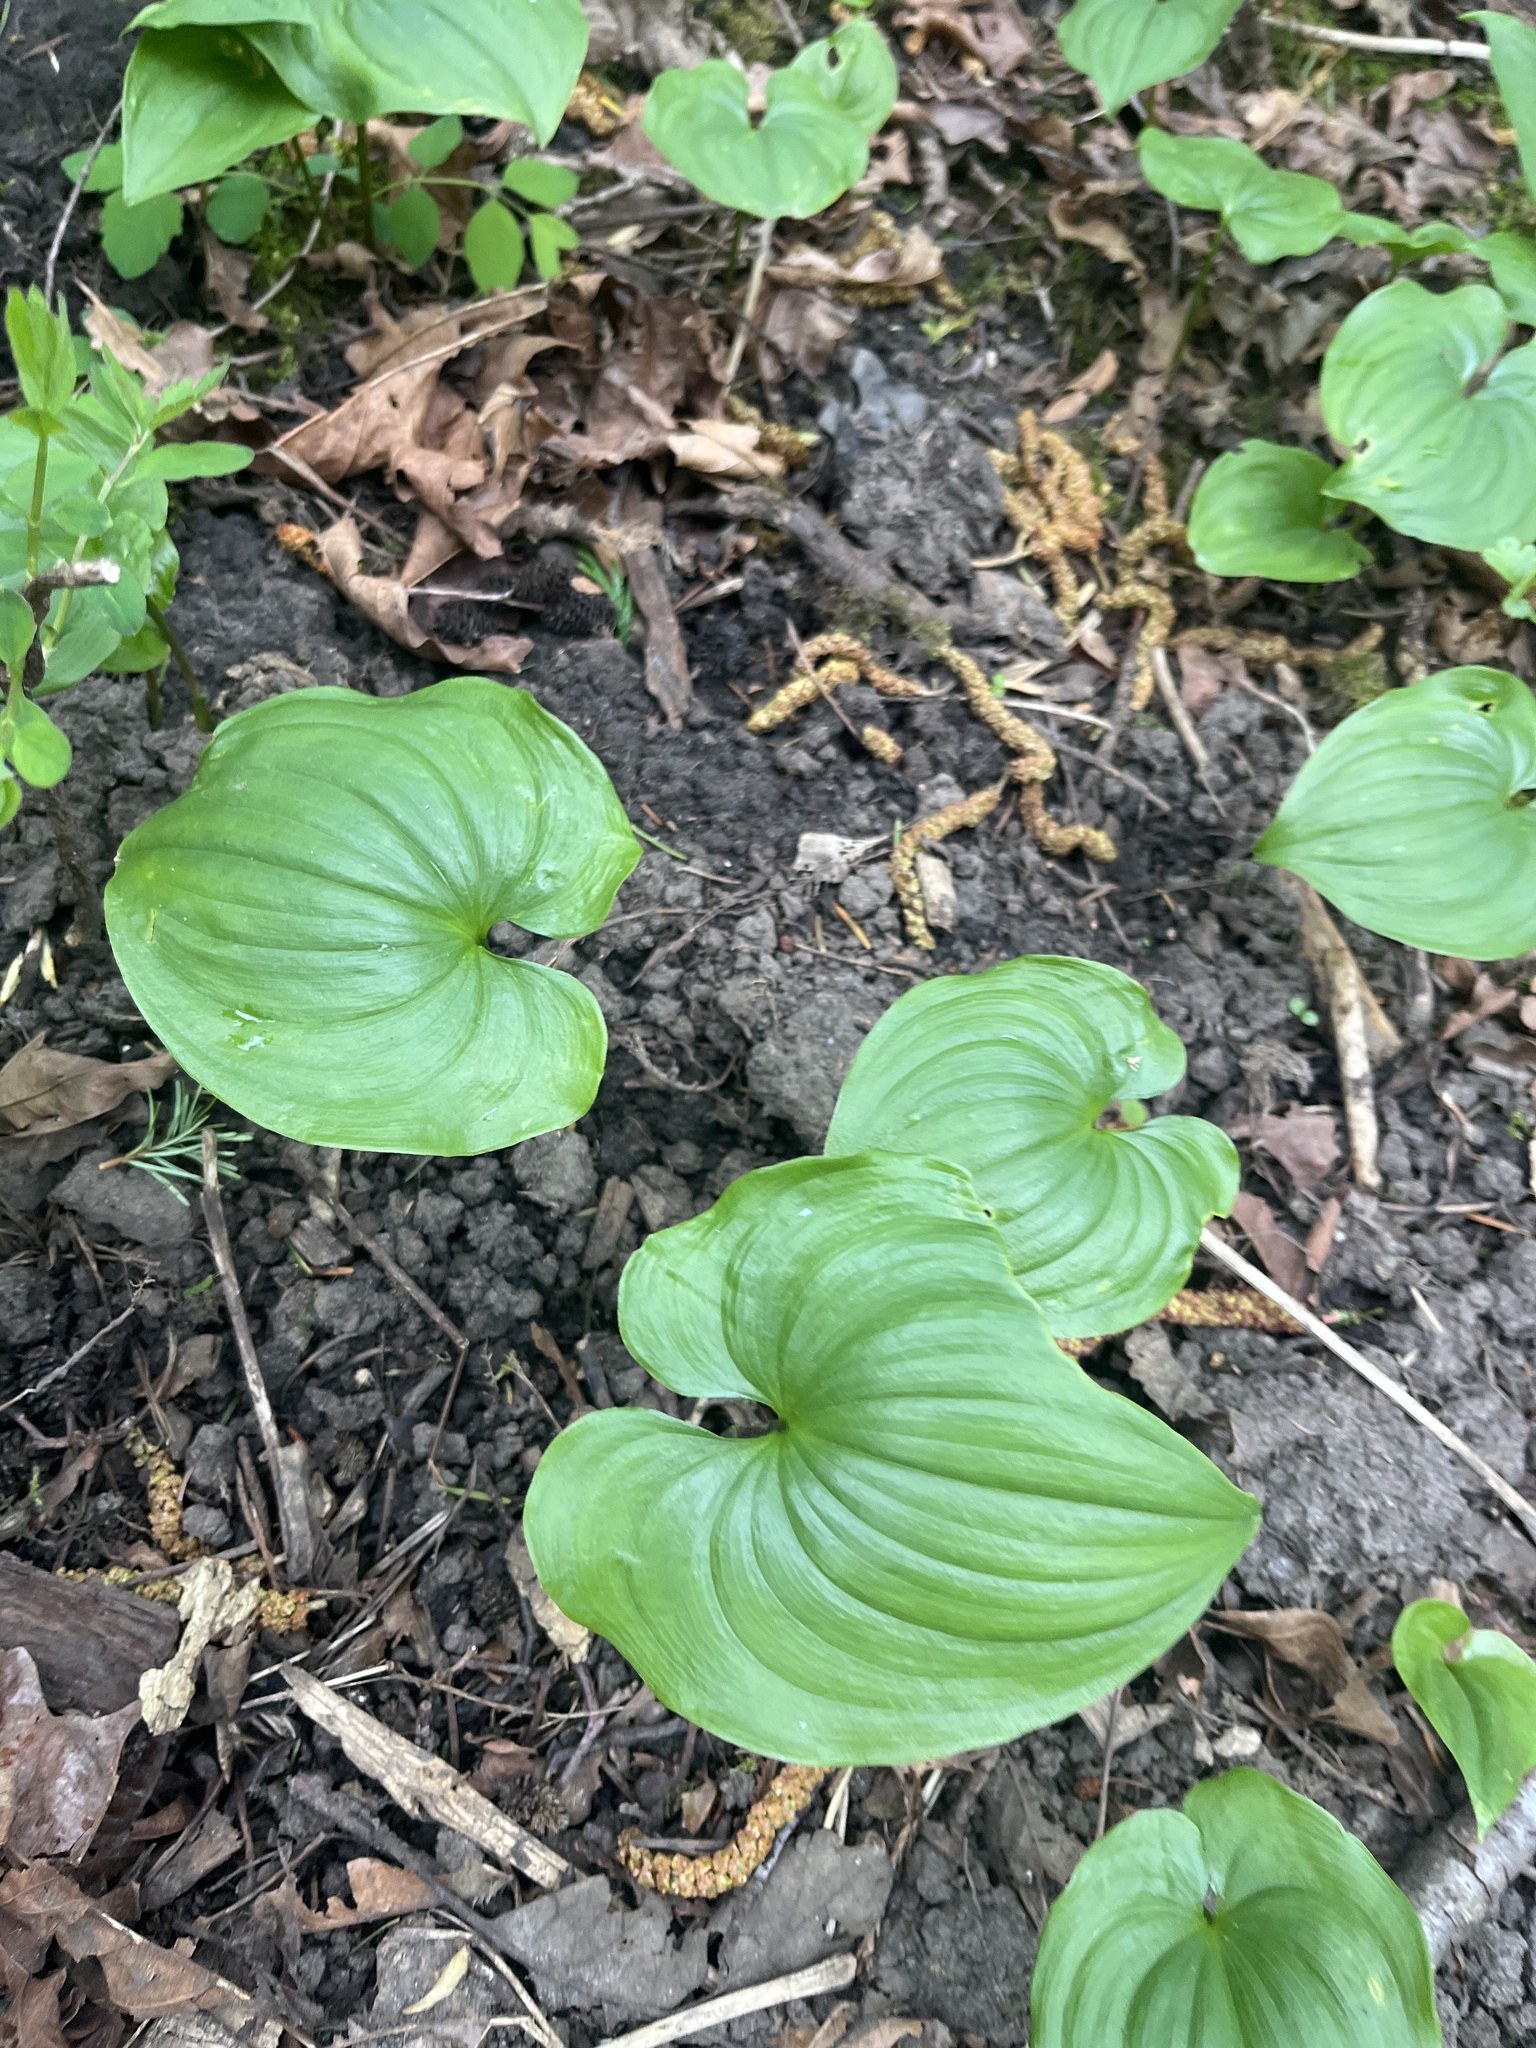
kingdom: Plantae
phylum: Tracheophyta
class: Liliopsida
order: Asparagales
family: Asparagaceae
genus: Maianthemum
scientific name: Maianthemum dilatatum
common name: False lily-of-the-valley
